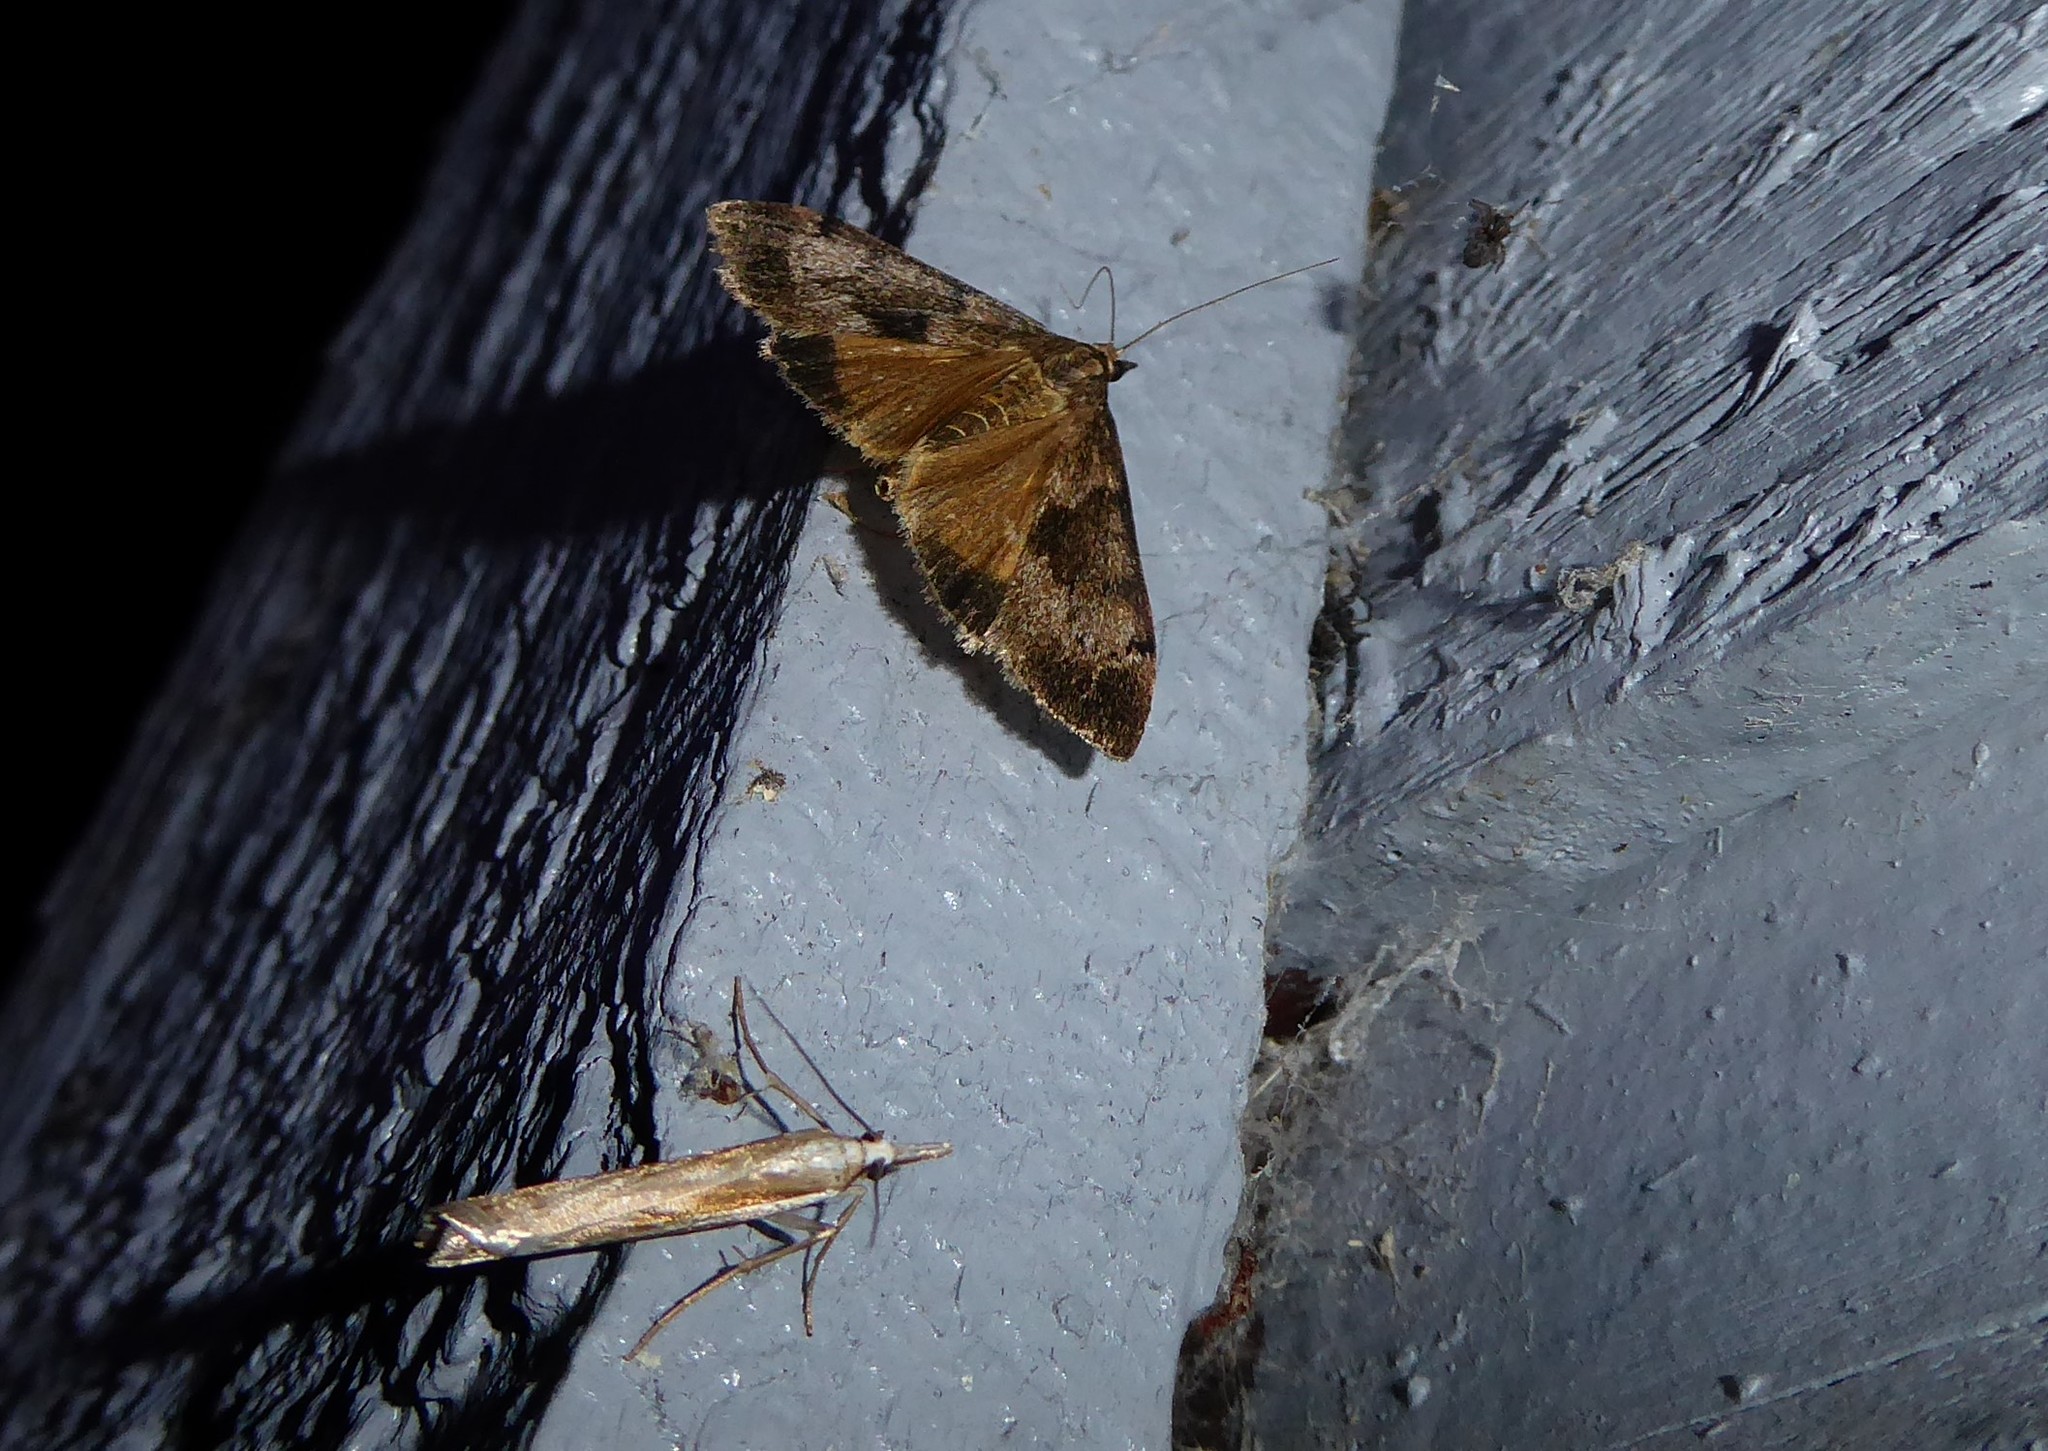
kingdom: Animalia
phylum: Arthropoda
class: Insecta
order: Lepidoptera
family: Crambidae
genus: Uresiphita
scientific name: Uresiphita
